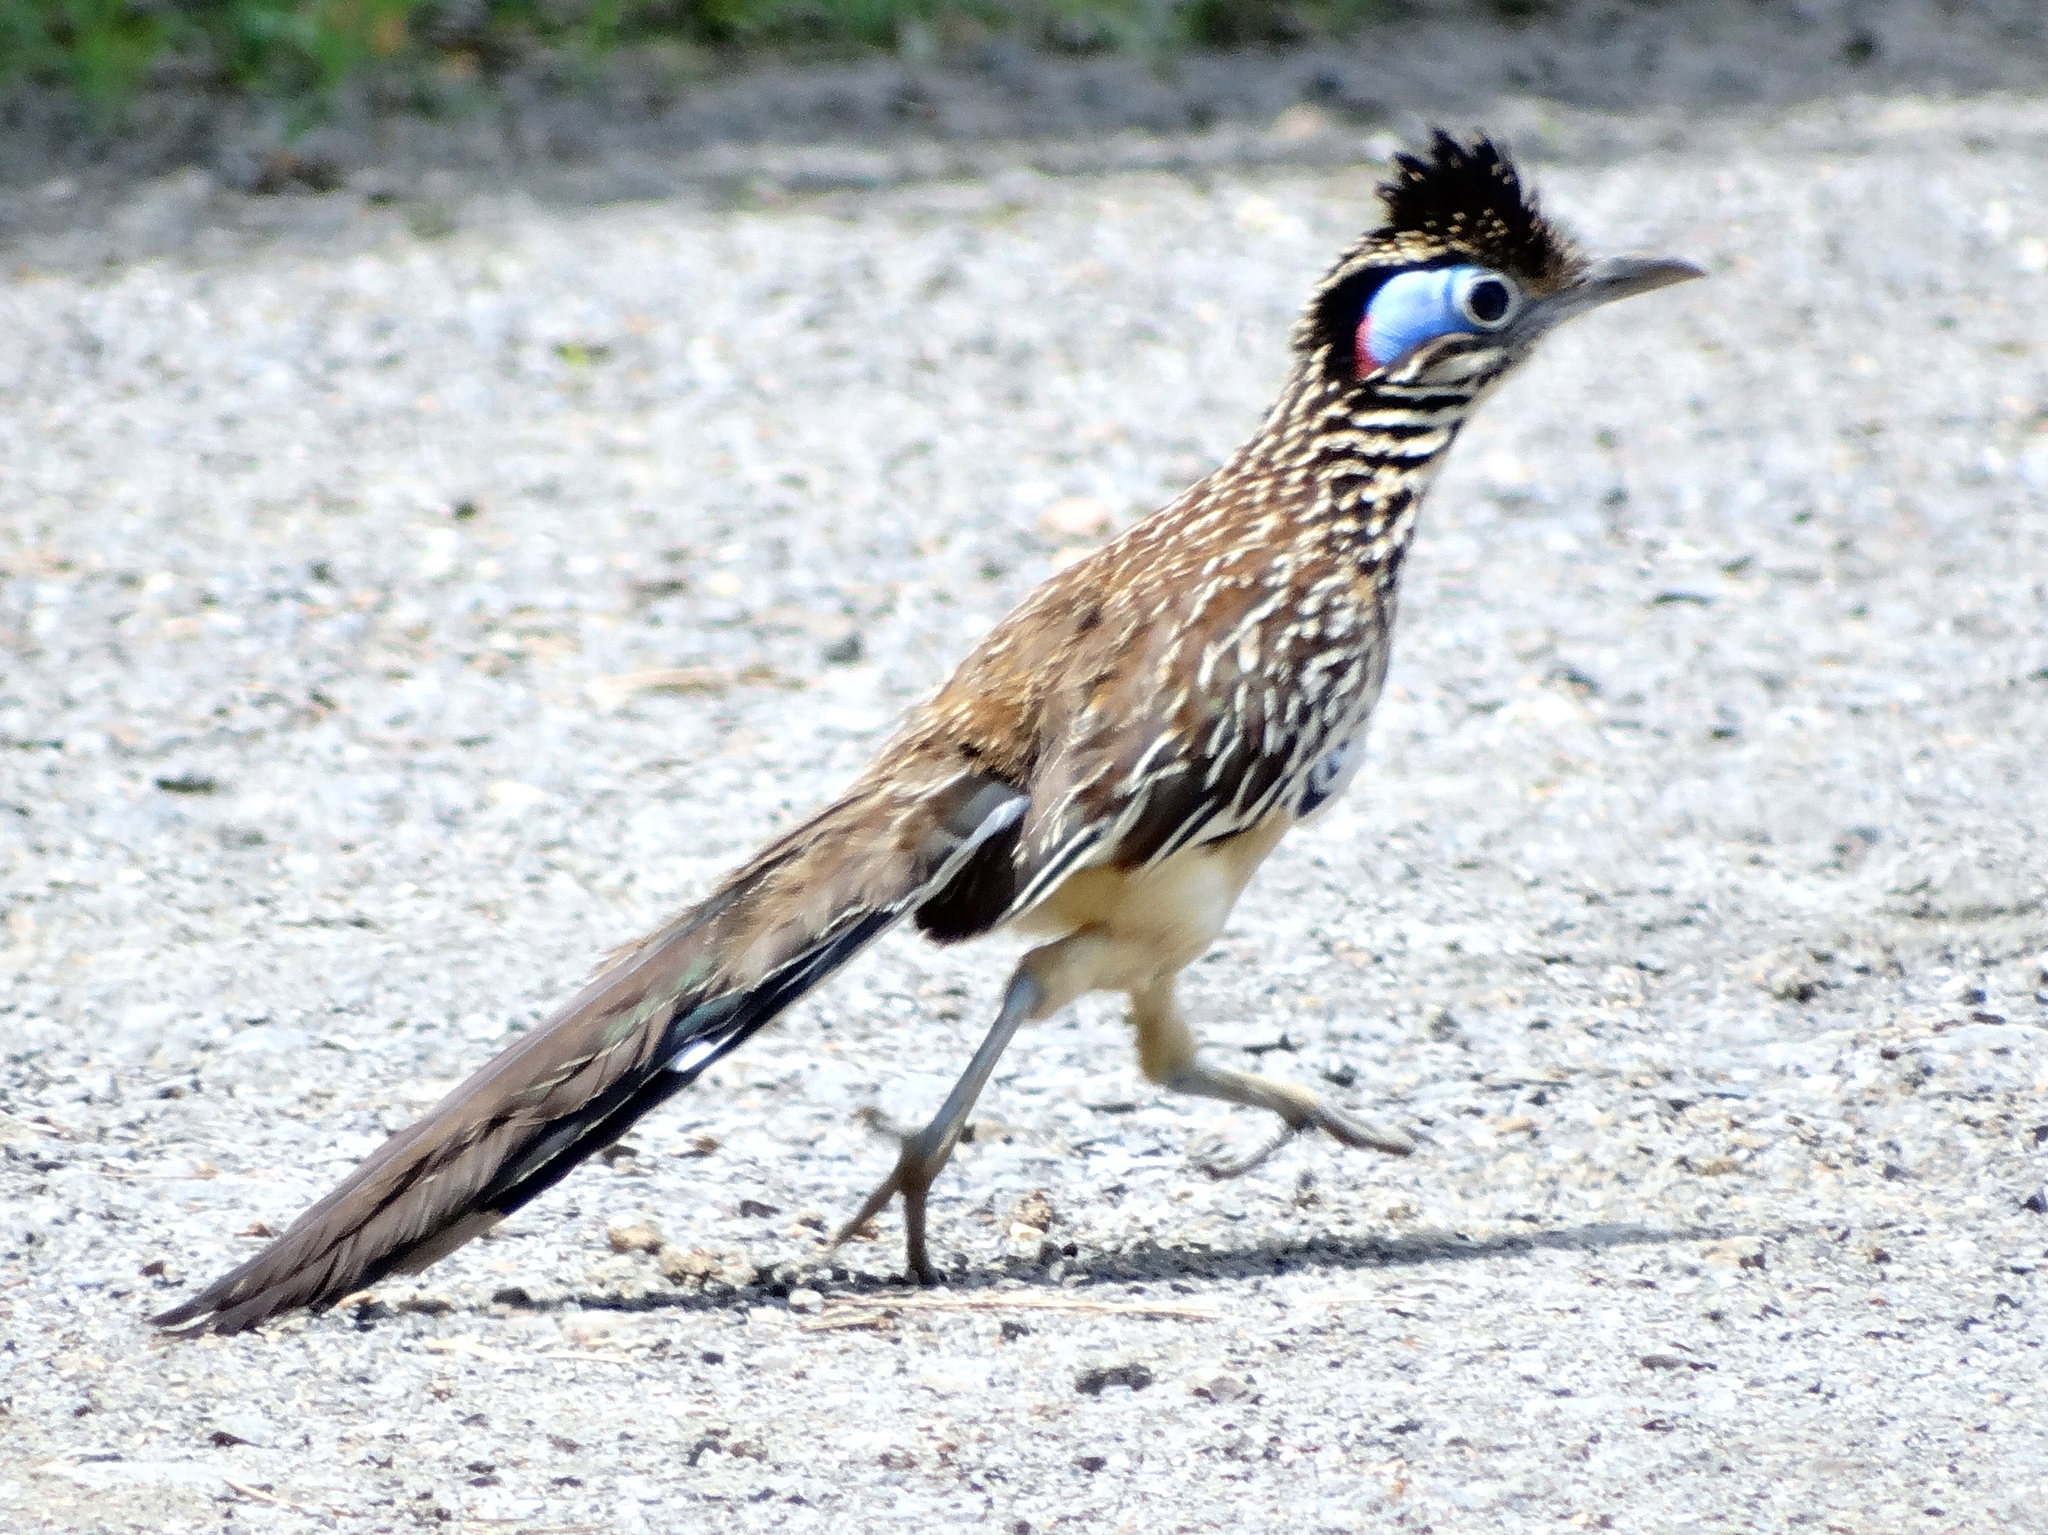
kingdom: Animalia
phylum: Chordata
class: Aves
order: Cuculiformes
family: Cuculidae
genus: Geococcyx
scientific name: Geococcyx velox
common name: Lesser roadrunner
